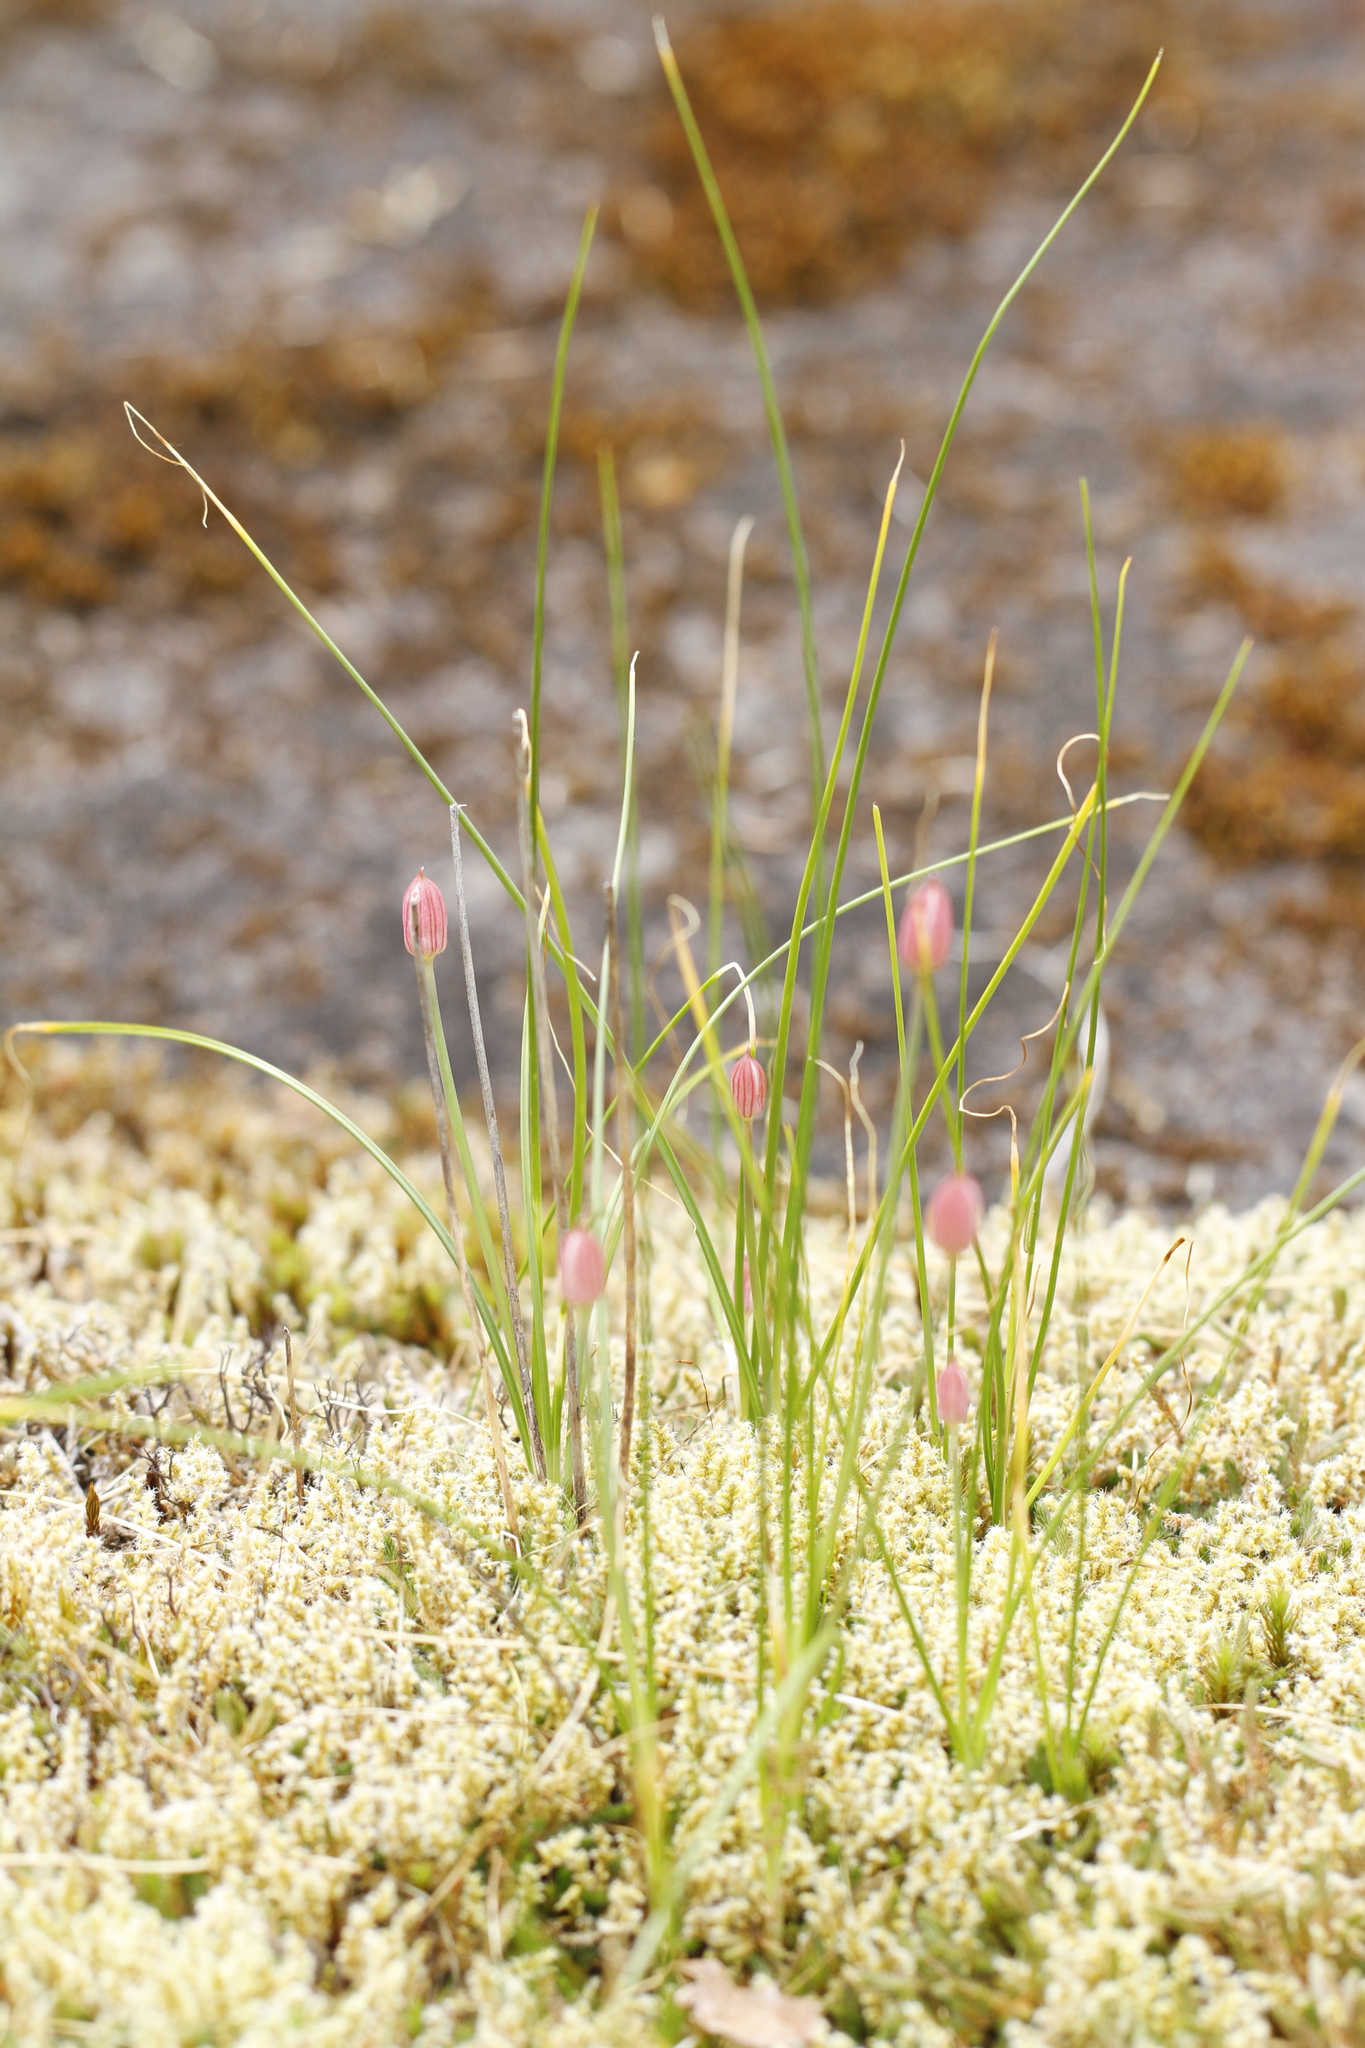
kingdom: Plantae
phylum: Tracheophyta
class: Liliopsida
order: Asparagales
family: Amaryllidaceae
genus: Allium
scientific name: Allium amplectens
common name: Narrow-leaved onion
